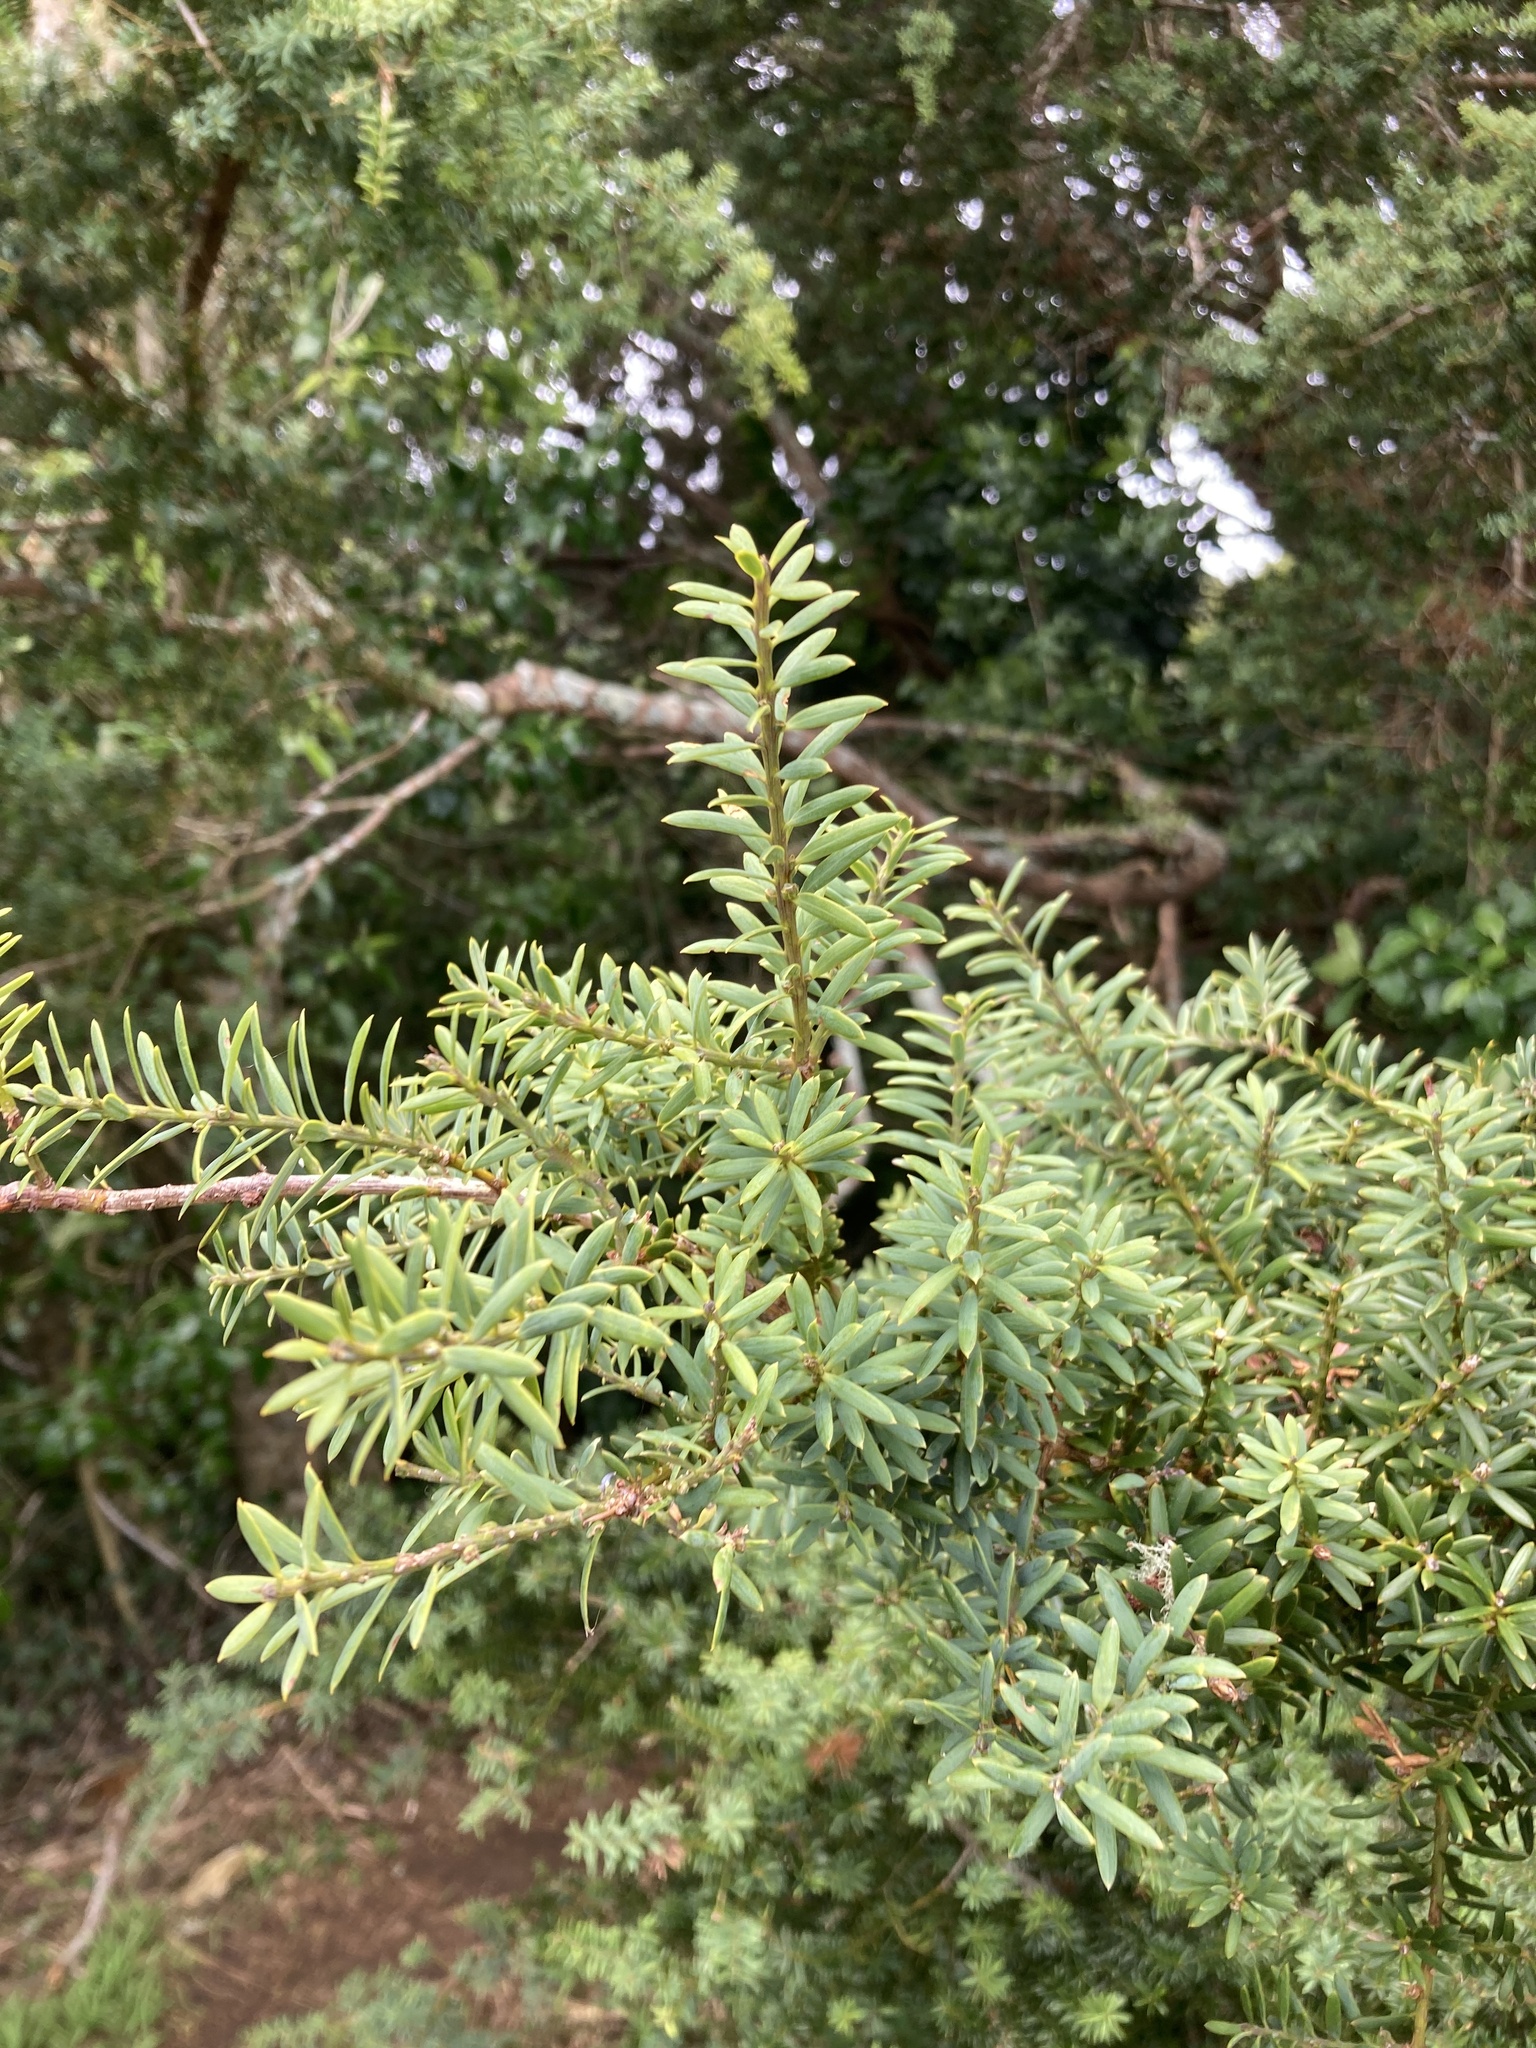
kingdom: Plantae
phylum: Tracheophyta
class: Pinopsida
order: Pinales
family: Podocarpaceae
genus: Podocarpus
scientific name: Podocarpus totara
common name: Totara
